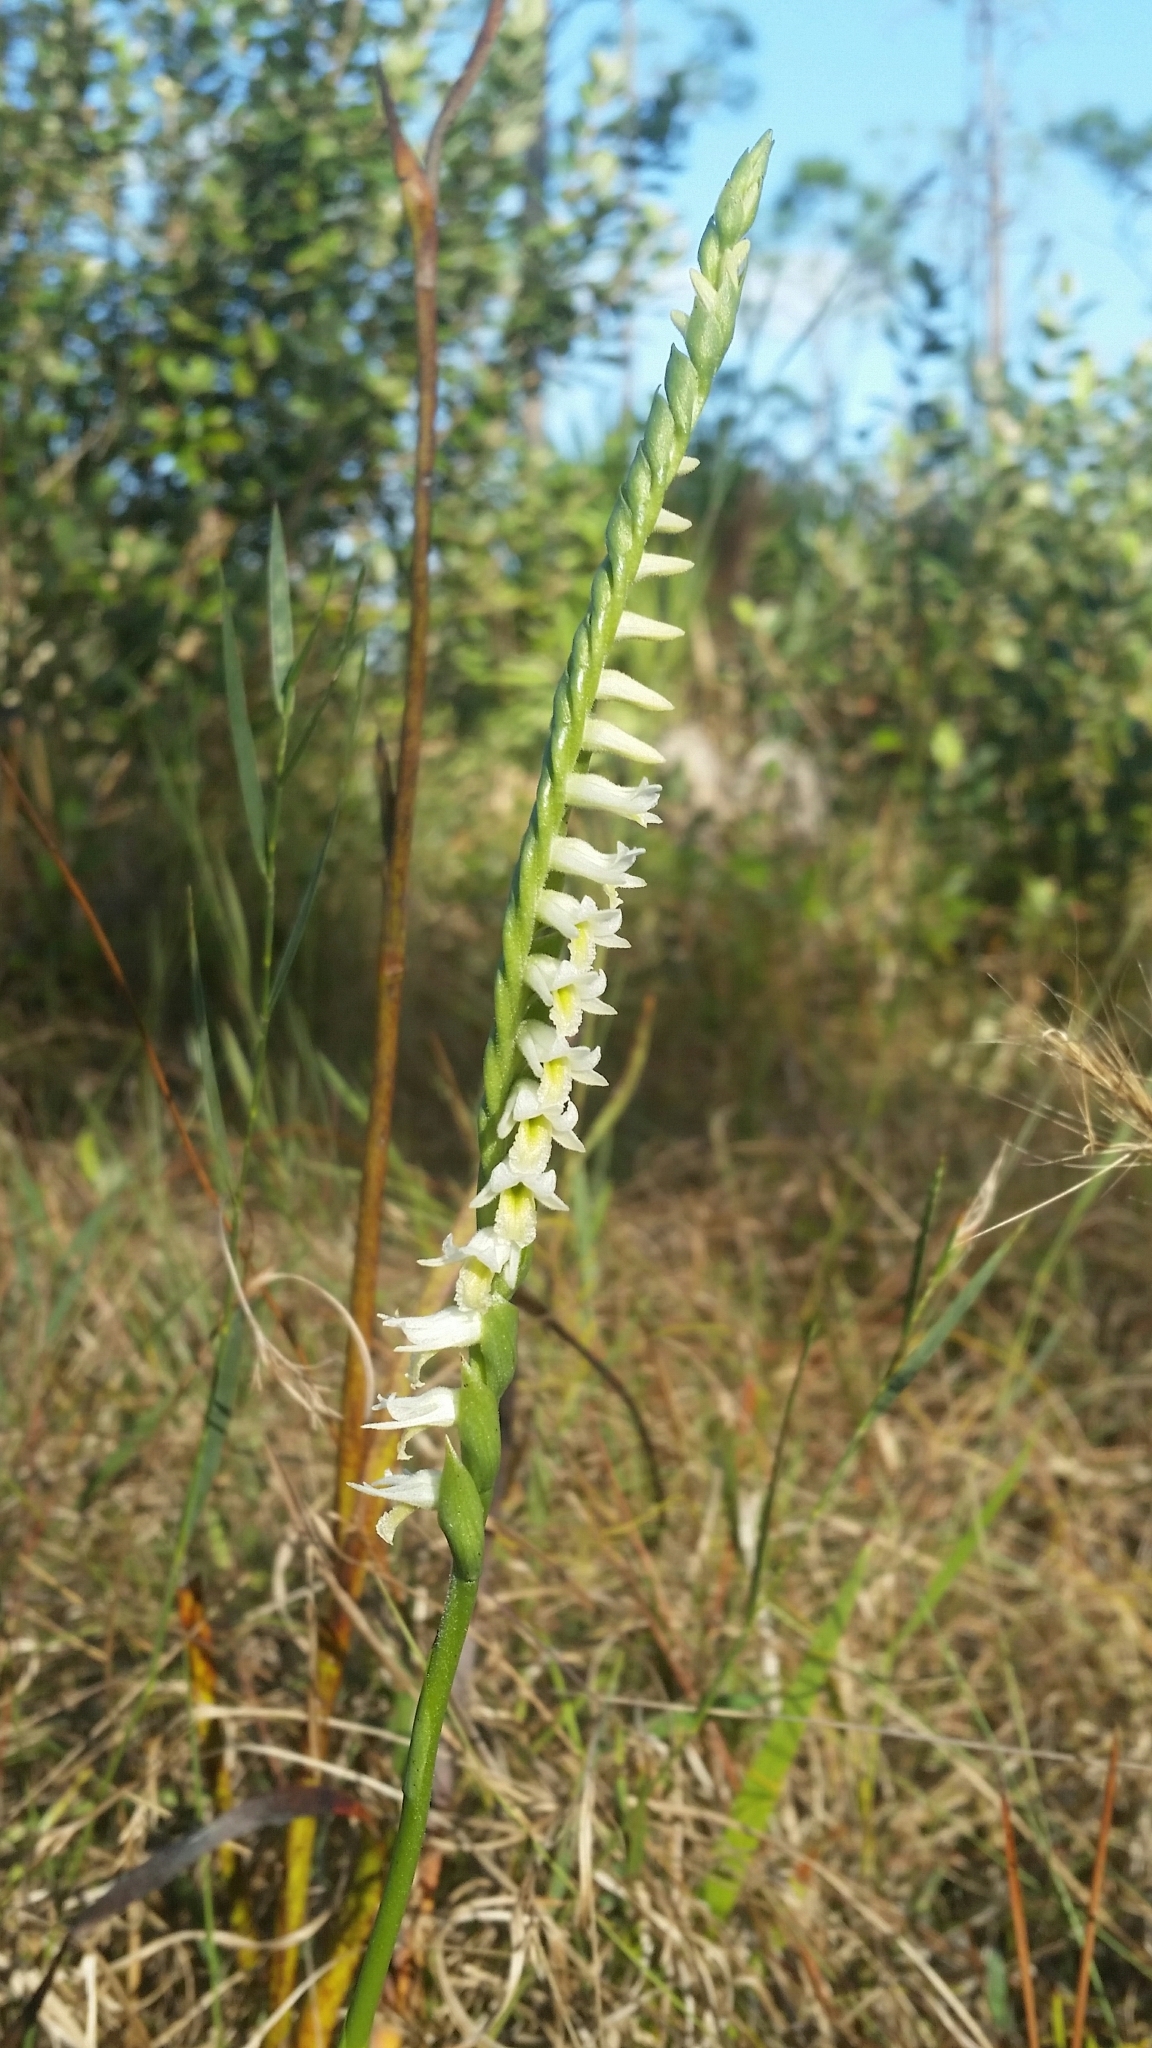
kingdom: Plantae
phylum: Tracheophyta
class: Liliopsida
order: Asparagales
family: Orchidaceae
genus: Spiranthes
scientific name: Spiranthes longilabris
